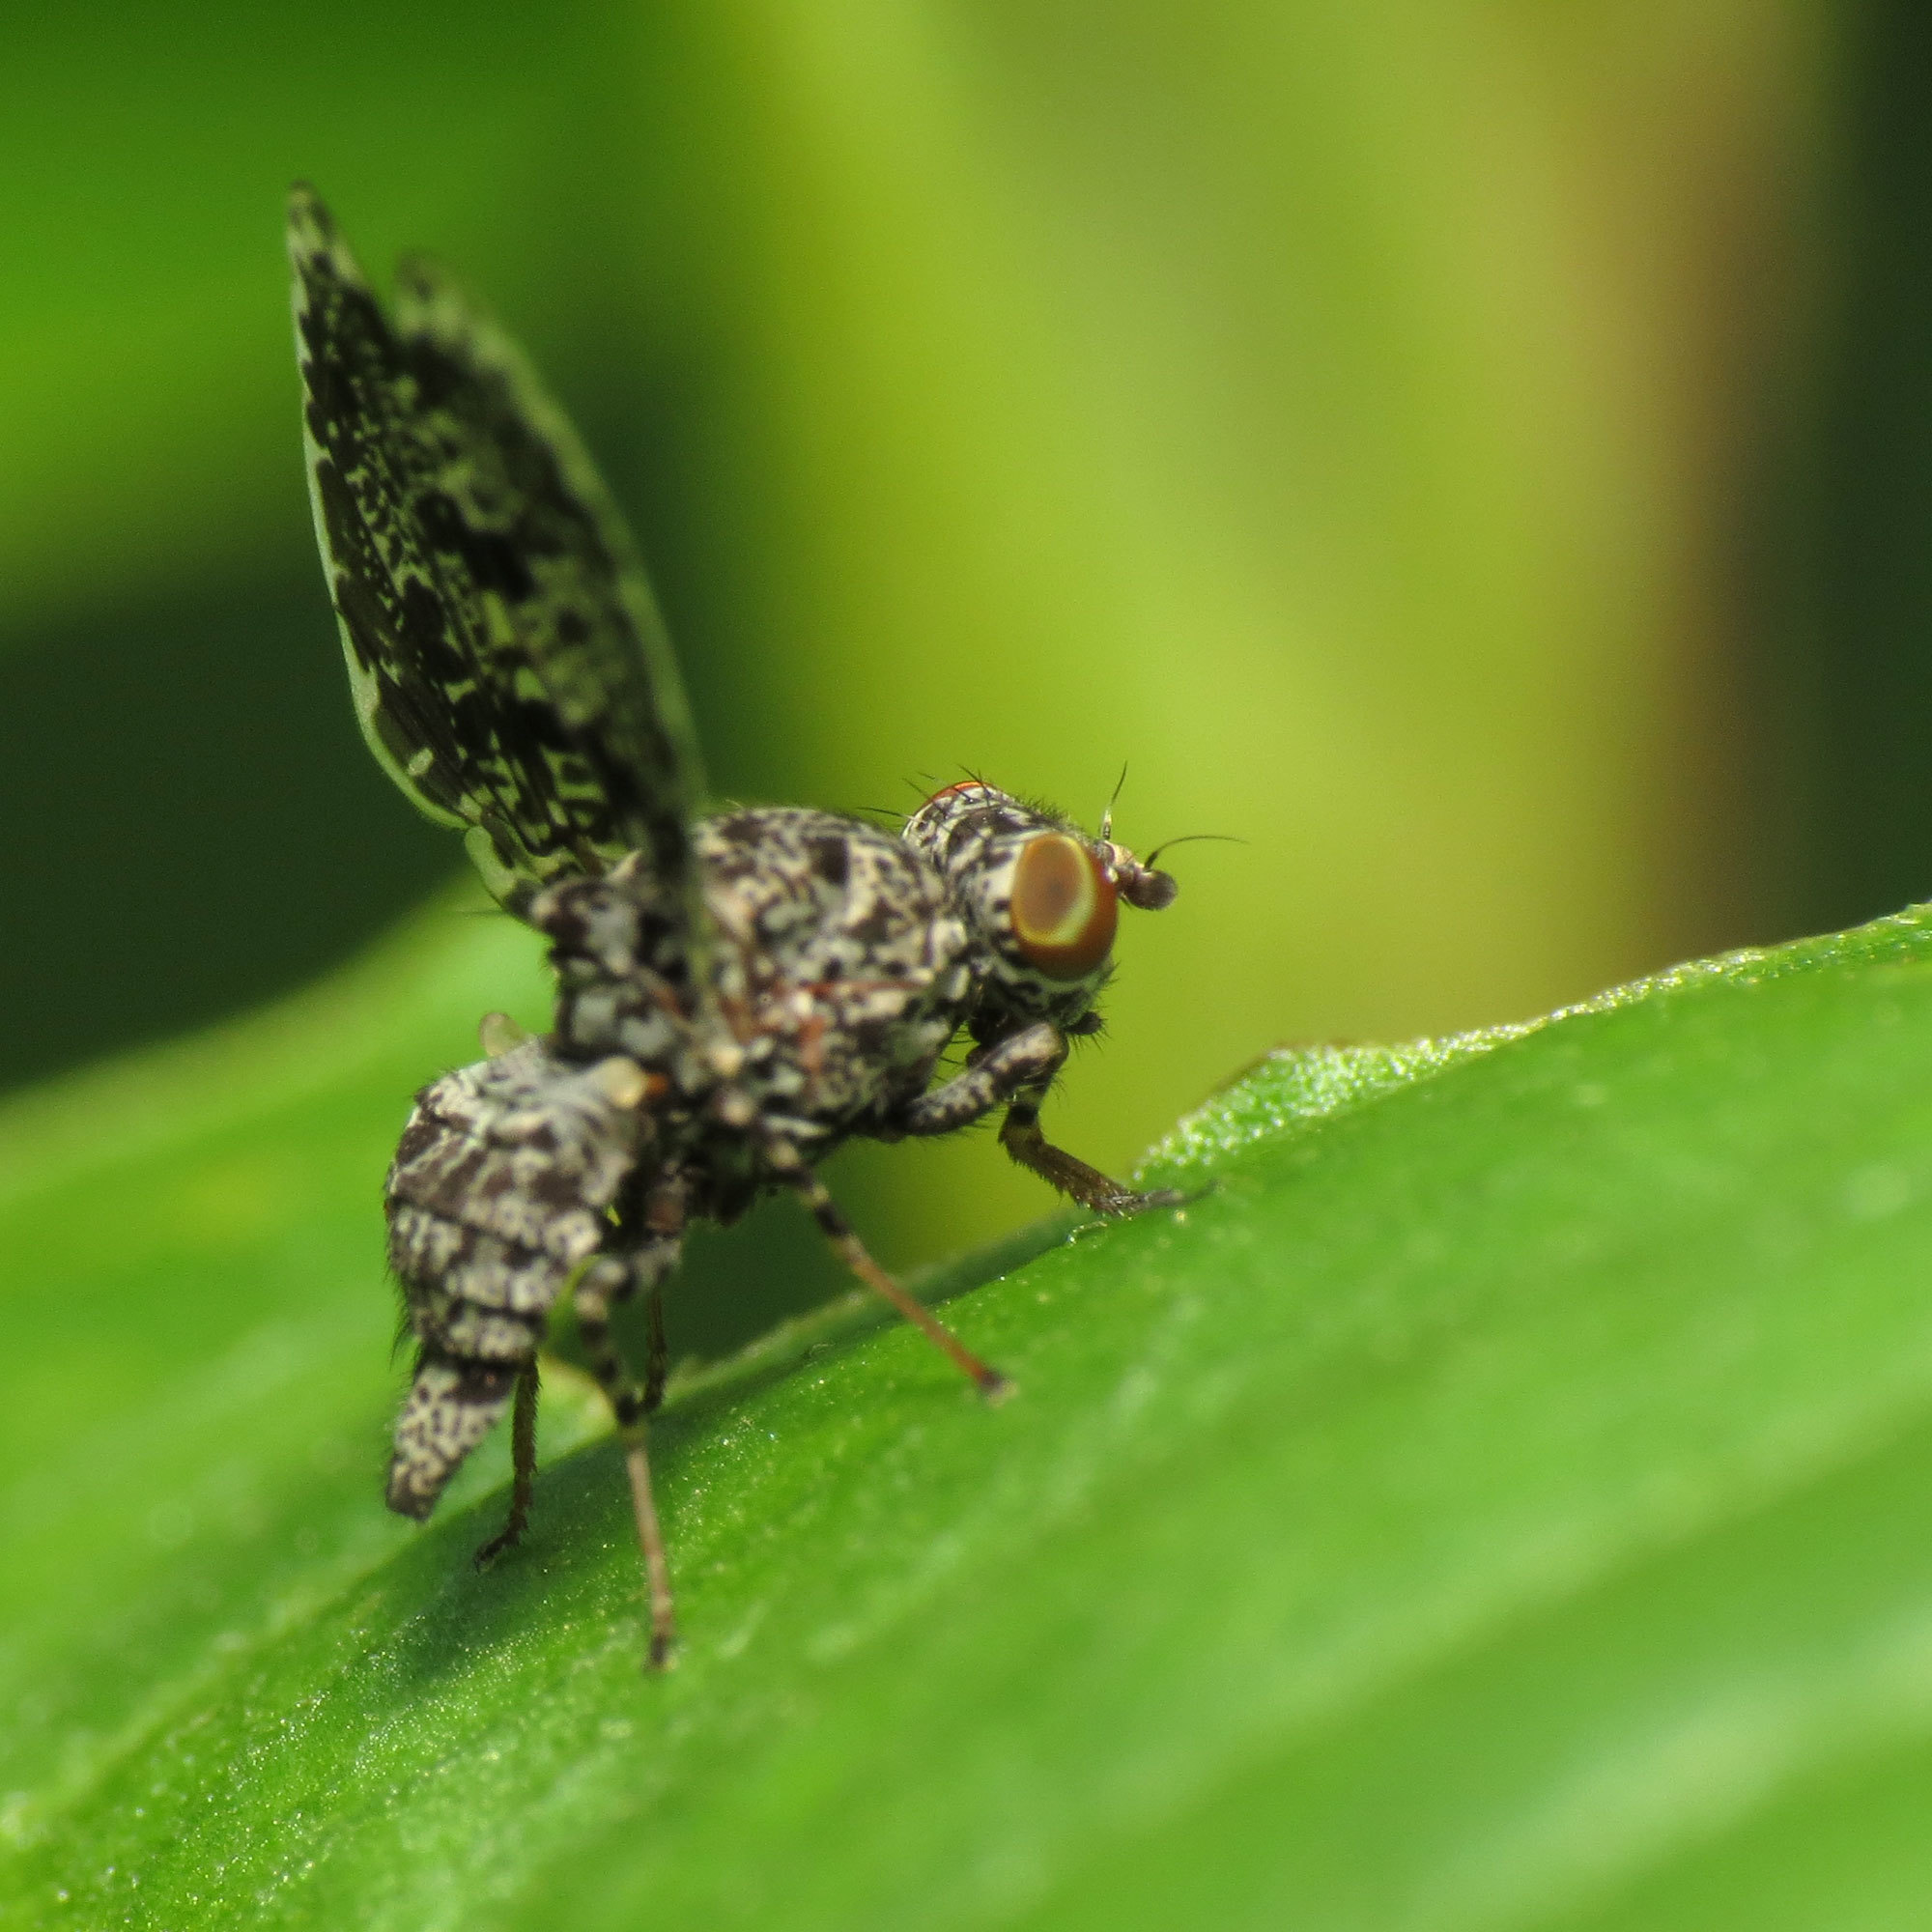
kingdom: Animalia
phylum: Arthropoda
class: Insecta
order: Diptera
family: Ulidiidae
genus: Callopistromyia
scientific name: Callopistromyia annulipes
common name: Peacock fly
